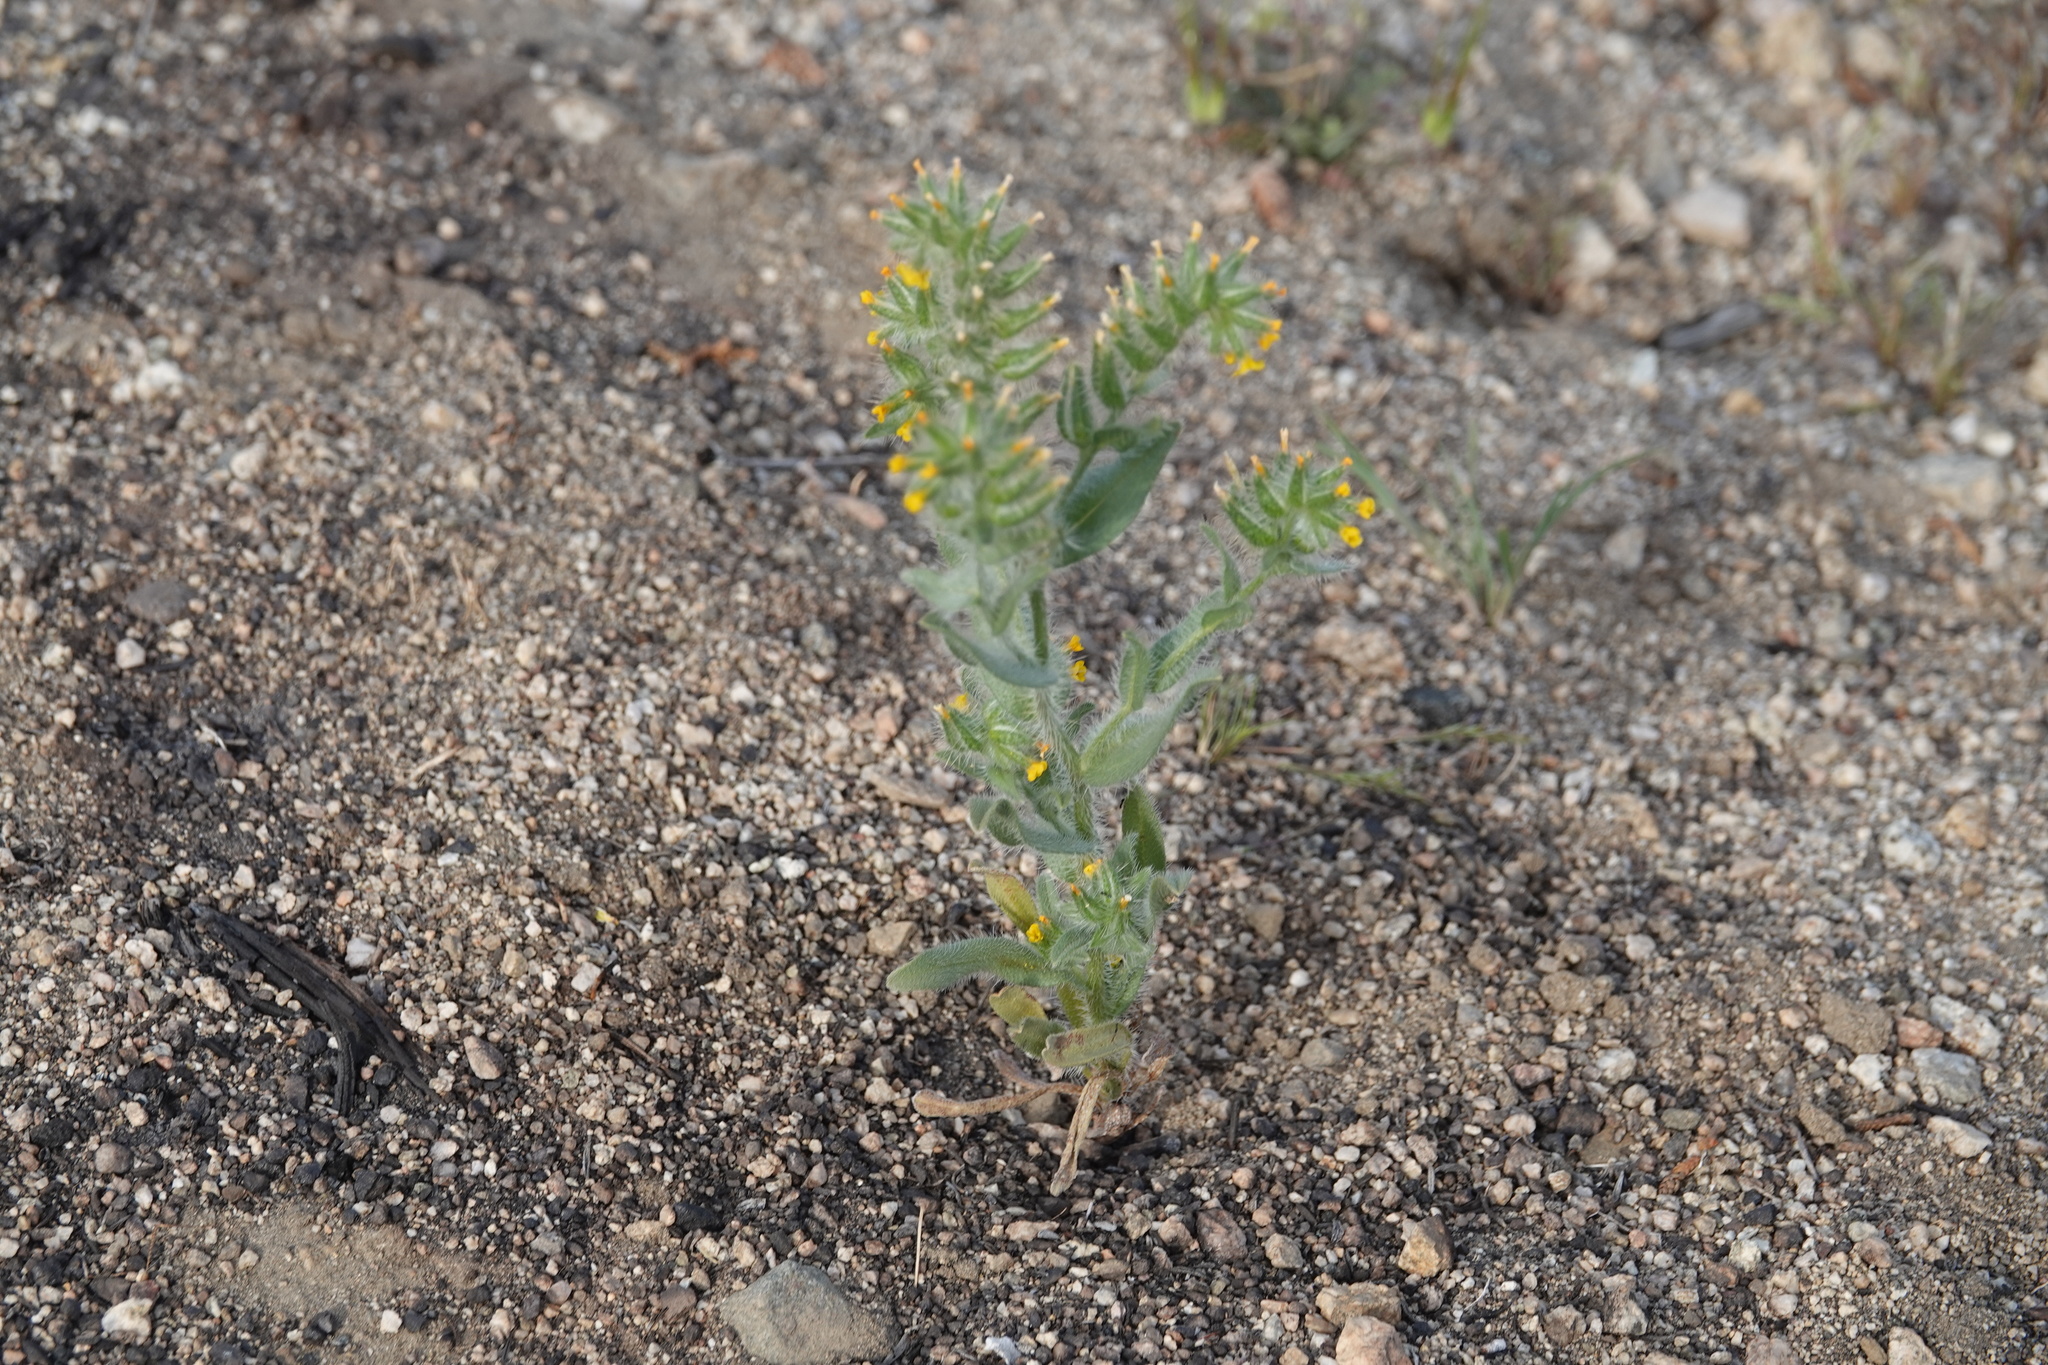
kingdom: Plantae
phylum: Tracheophyta
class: Magnoliopsida
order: Boraginales
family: Boraginaceae
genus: Amsinckia
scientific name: Amsinckia tessellata
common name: Tessellate fiddleneck
